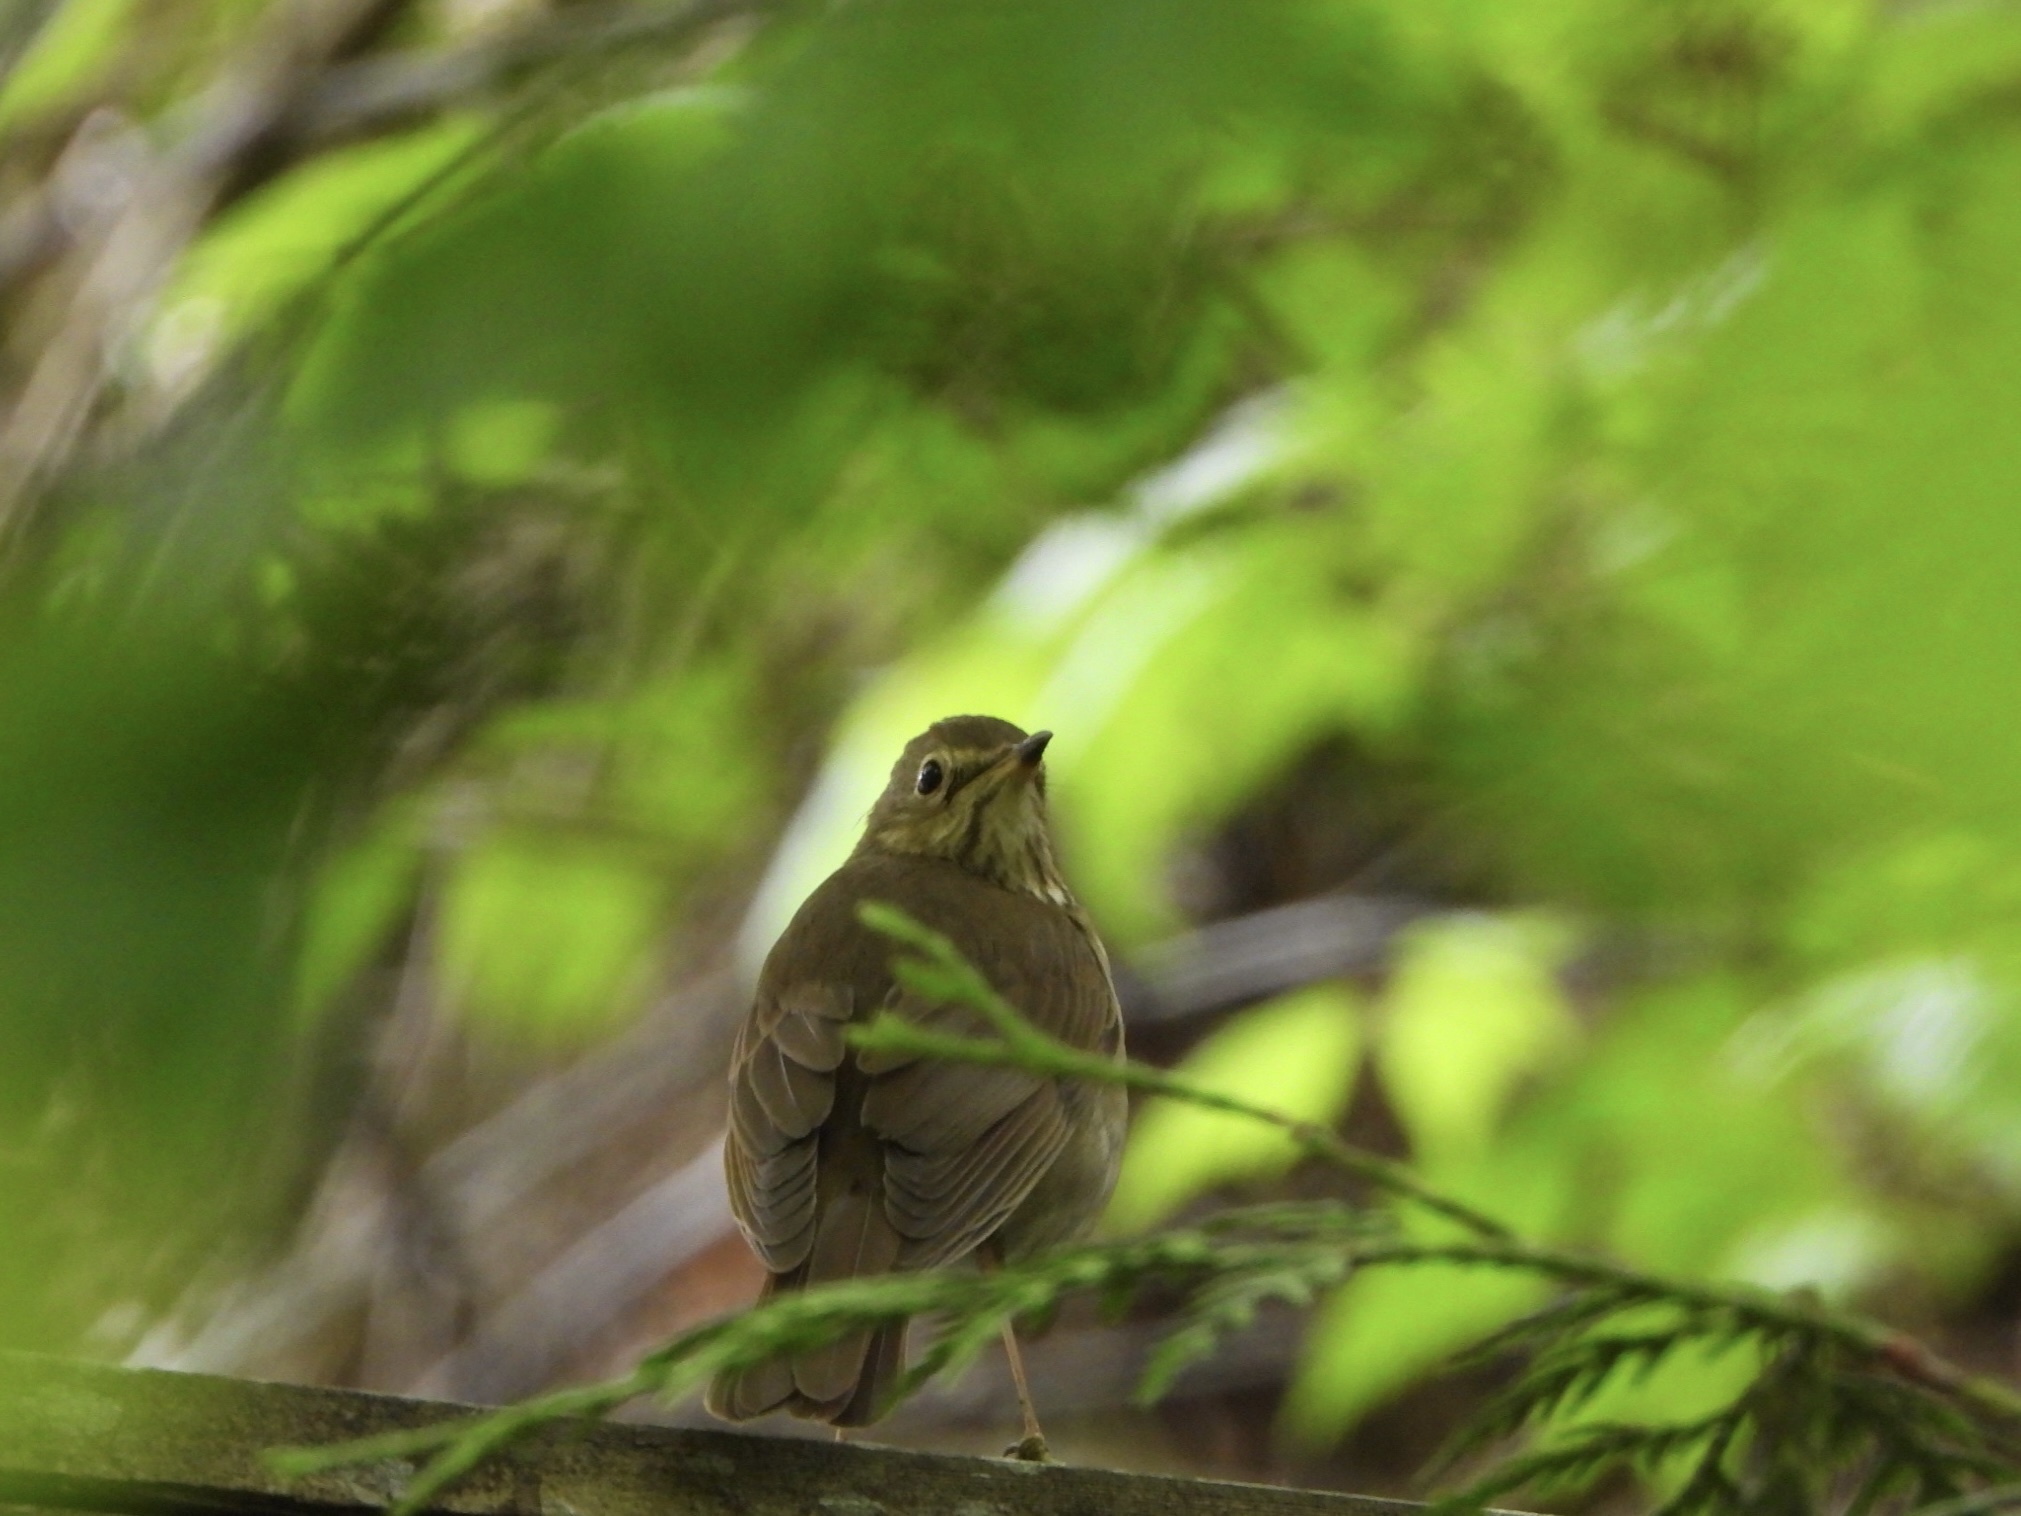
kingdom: Animalia
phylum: Chordata
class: Aves
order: Passeriformes
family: Turdidae
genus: Catharus
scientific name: Catharus ustulatus
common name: Swainson's thrush
